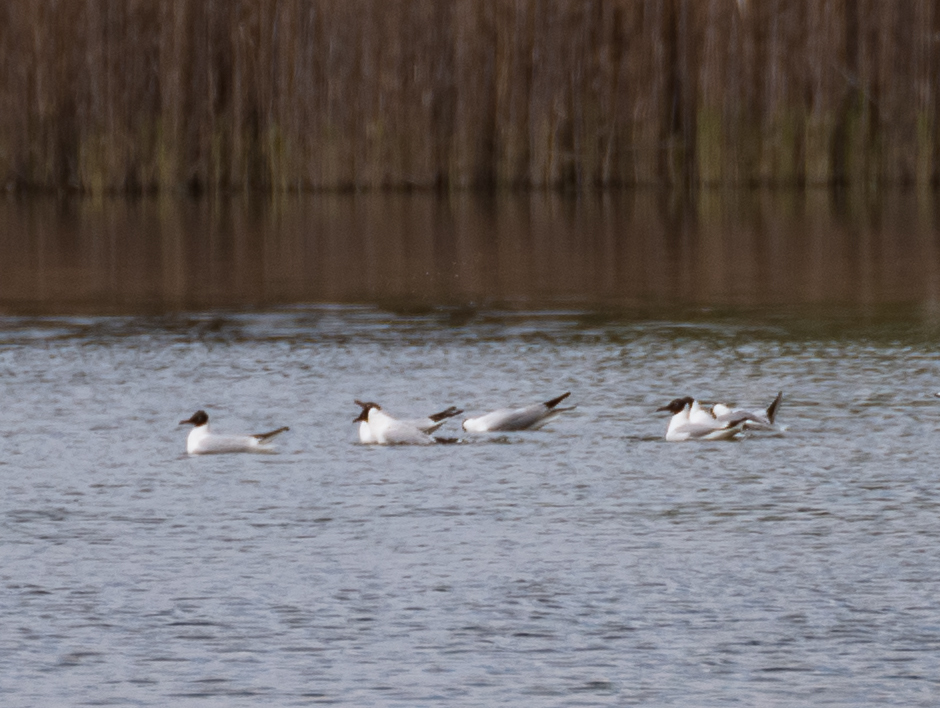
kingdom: Animalia
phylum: Chordata
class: Aves
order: Charadriiformes
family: Laridae
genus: Chroicocephalus
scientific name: Chroicocephalus ridibundus
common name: Black-headed gull
